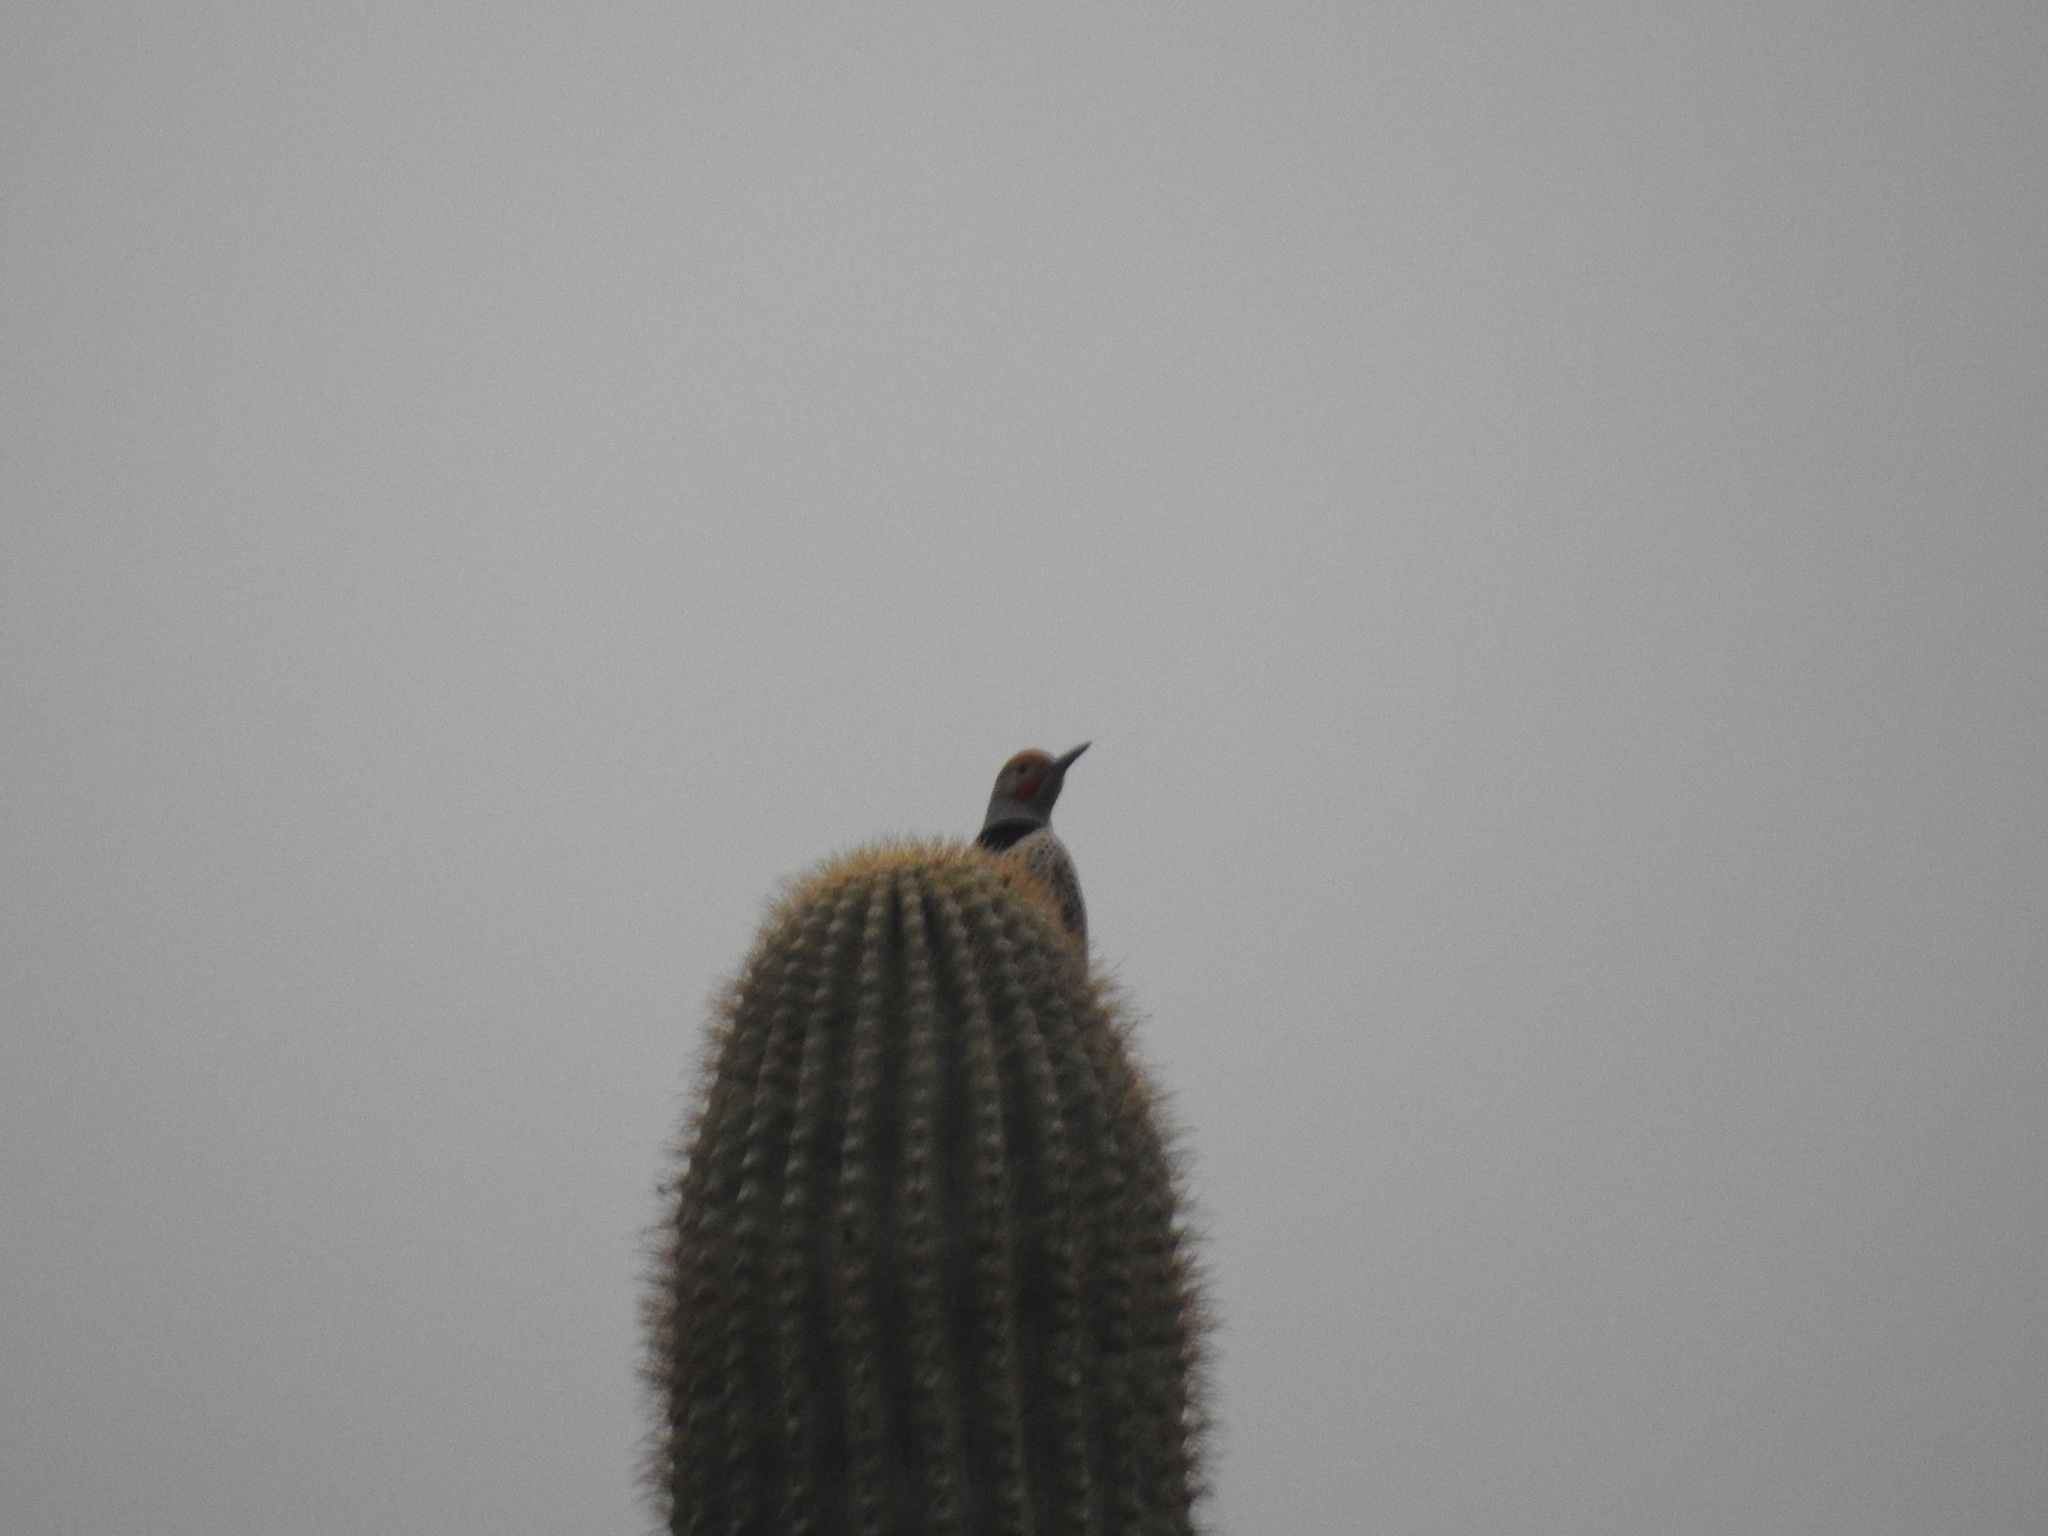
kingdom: Animalia
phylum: Chordata
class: Aves
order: Piciformes
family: Picidae
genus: Colaptes
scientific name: Colaptes chrysoides
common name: Gilded flicker
